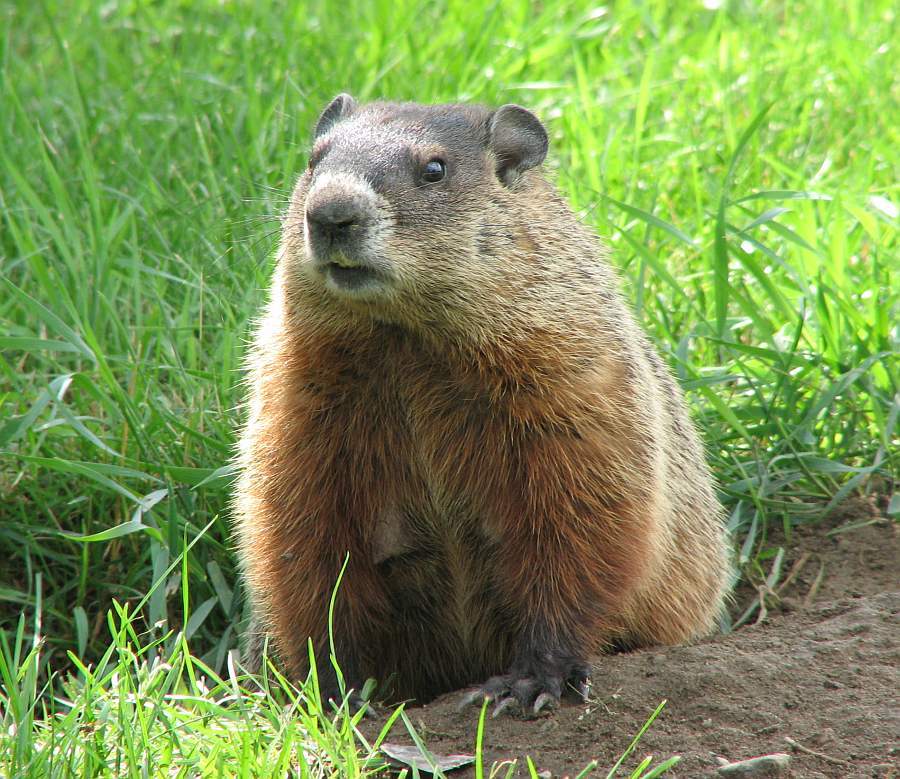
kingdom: Animalia
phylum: Chordata
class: Mammalia
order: Rodentia
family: Sciuridae
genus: Marmota
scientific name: Marmota monax
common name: Groundhog
